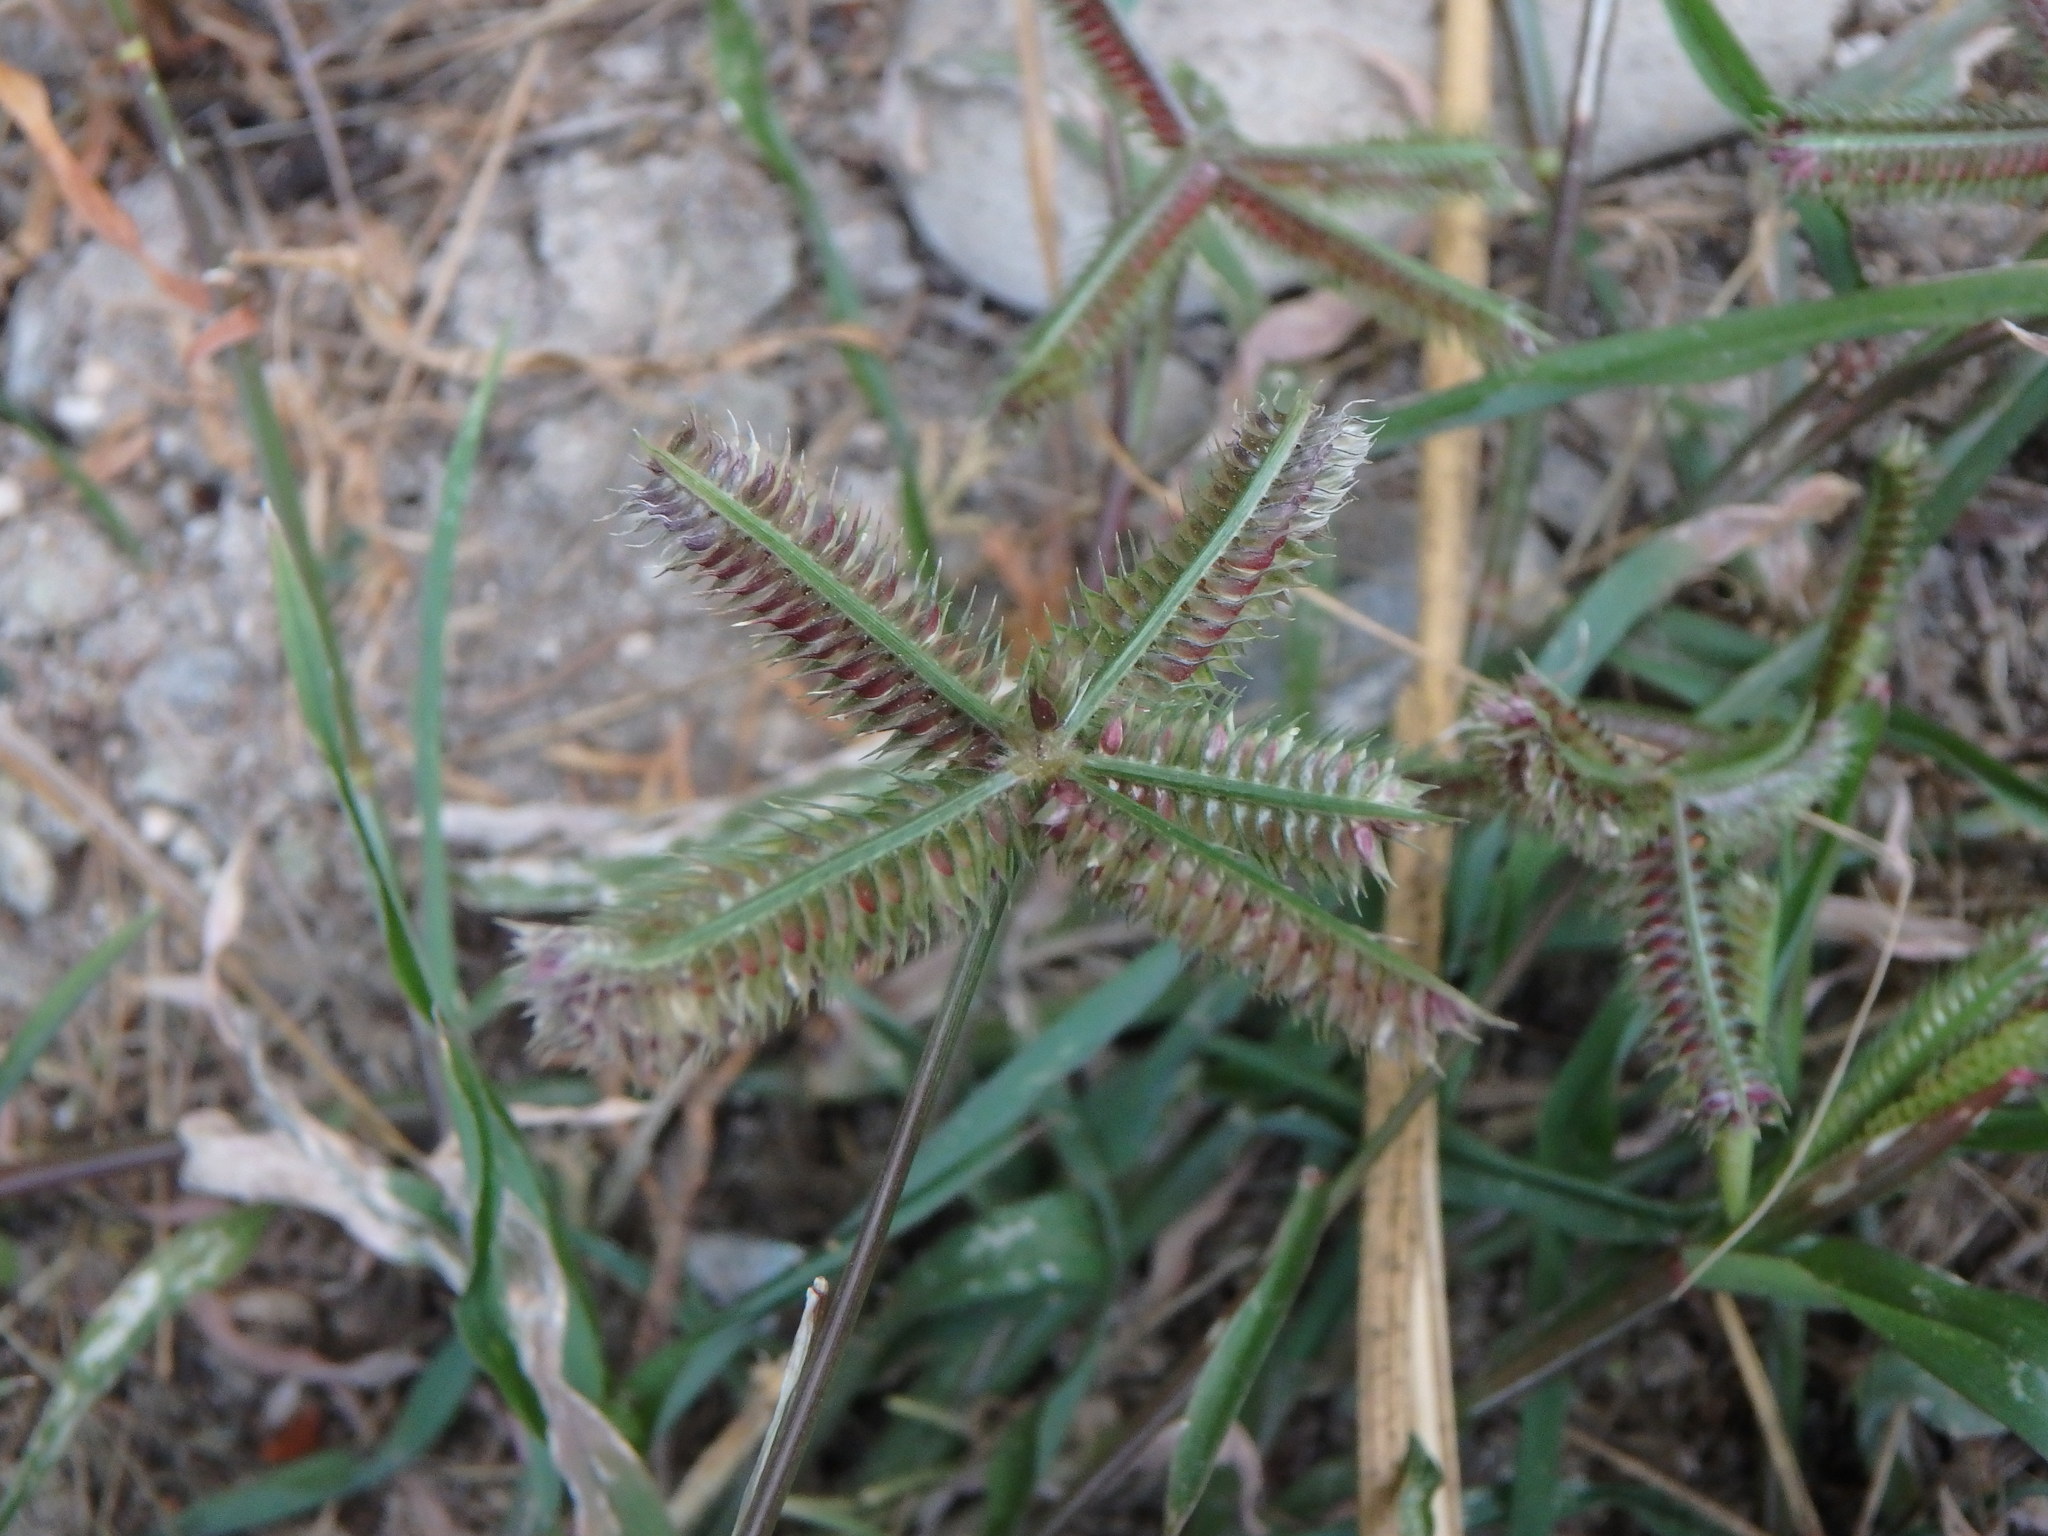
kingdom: Plantae
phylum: Tracheophyta
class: Liliopsida
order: Poales
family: Poaceae
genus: Dactyloctenium
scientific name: Dactyloctenium aegyptium
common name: Egyptian grass
